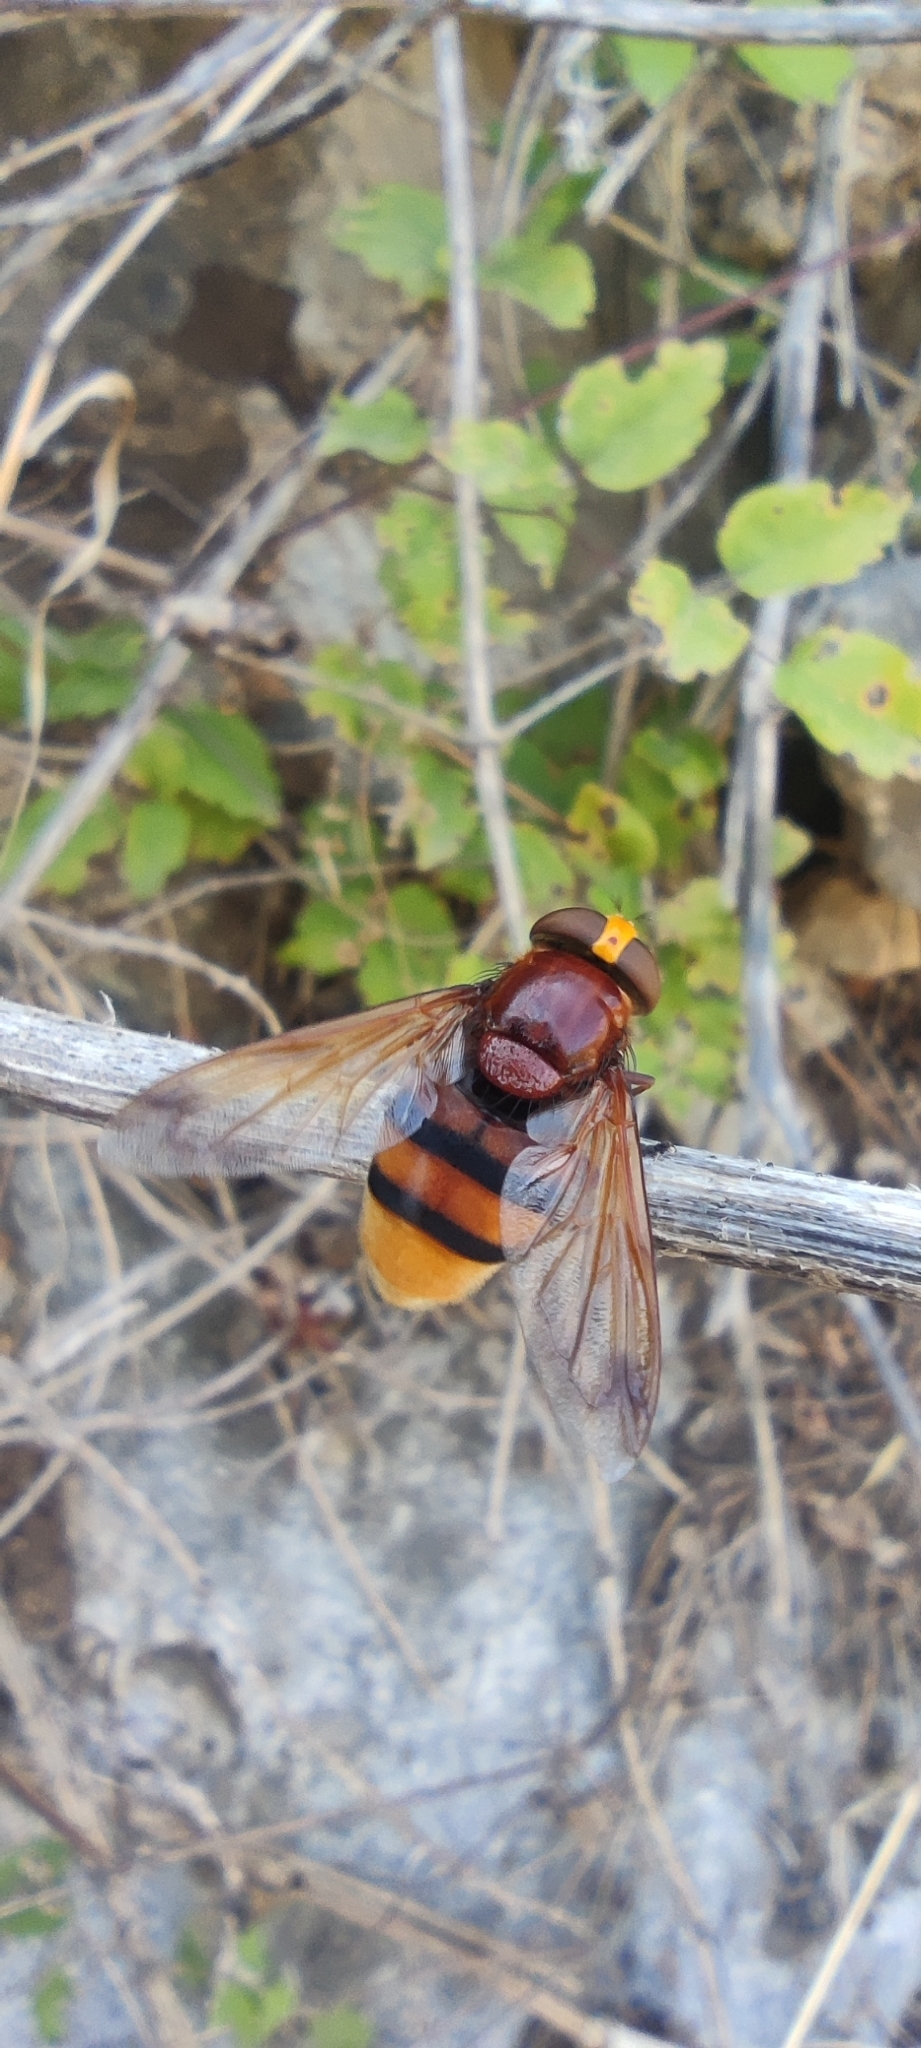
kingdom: Animalia
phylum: Arthropoda
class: Insecta
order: Diptera
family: Syrphidae
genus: Volucella
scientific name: Volucella zonaria
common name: Hornet hoverfly
